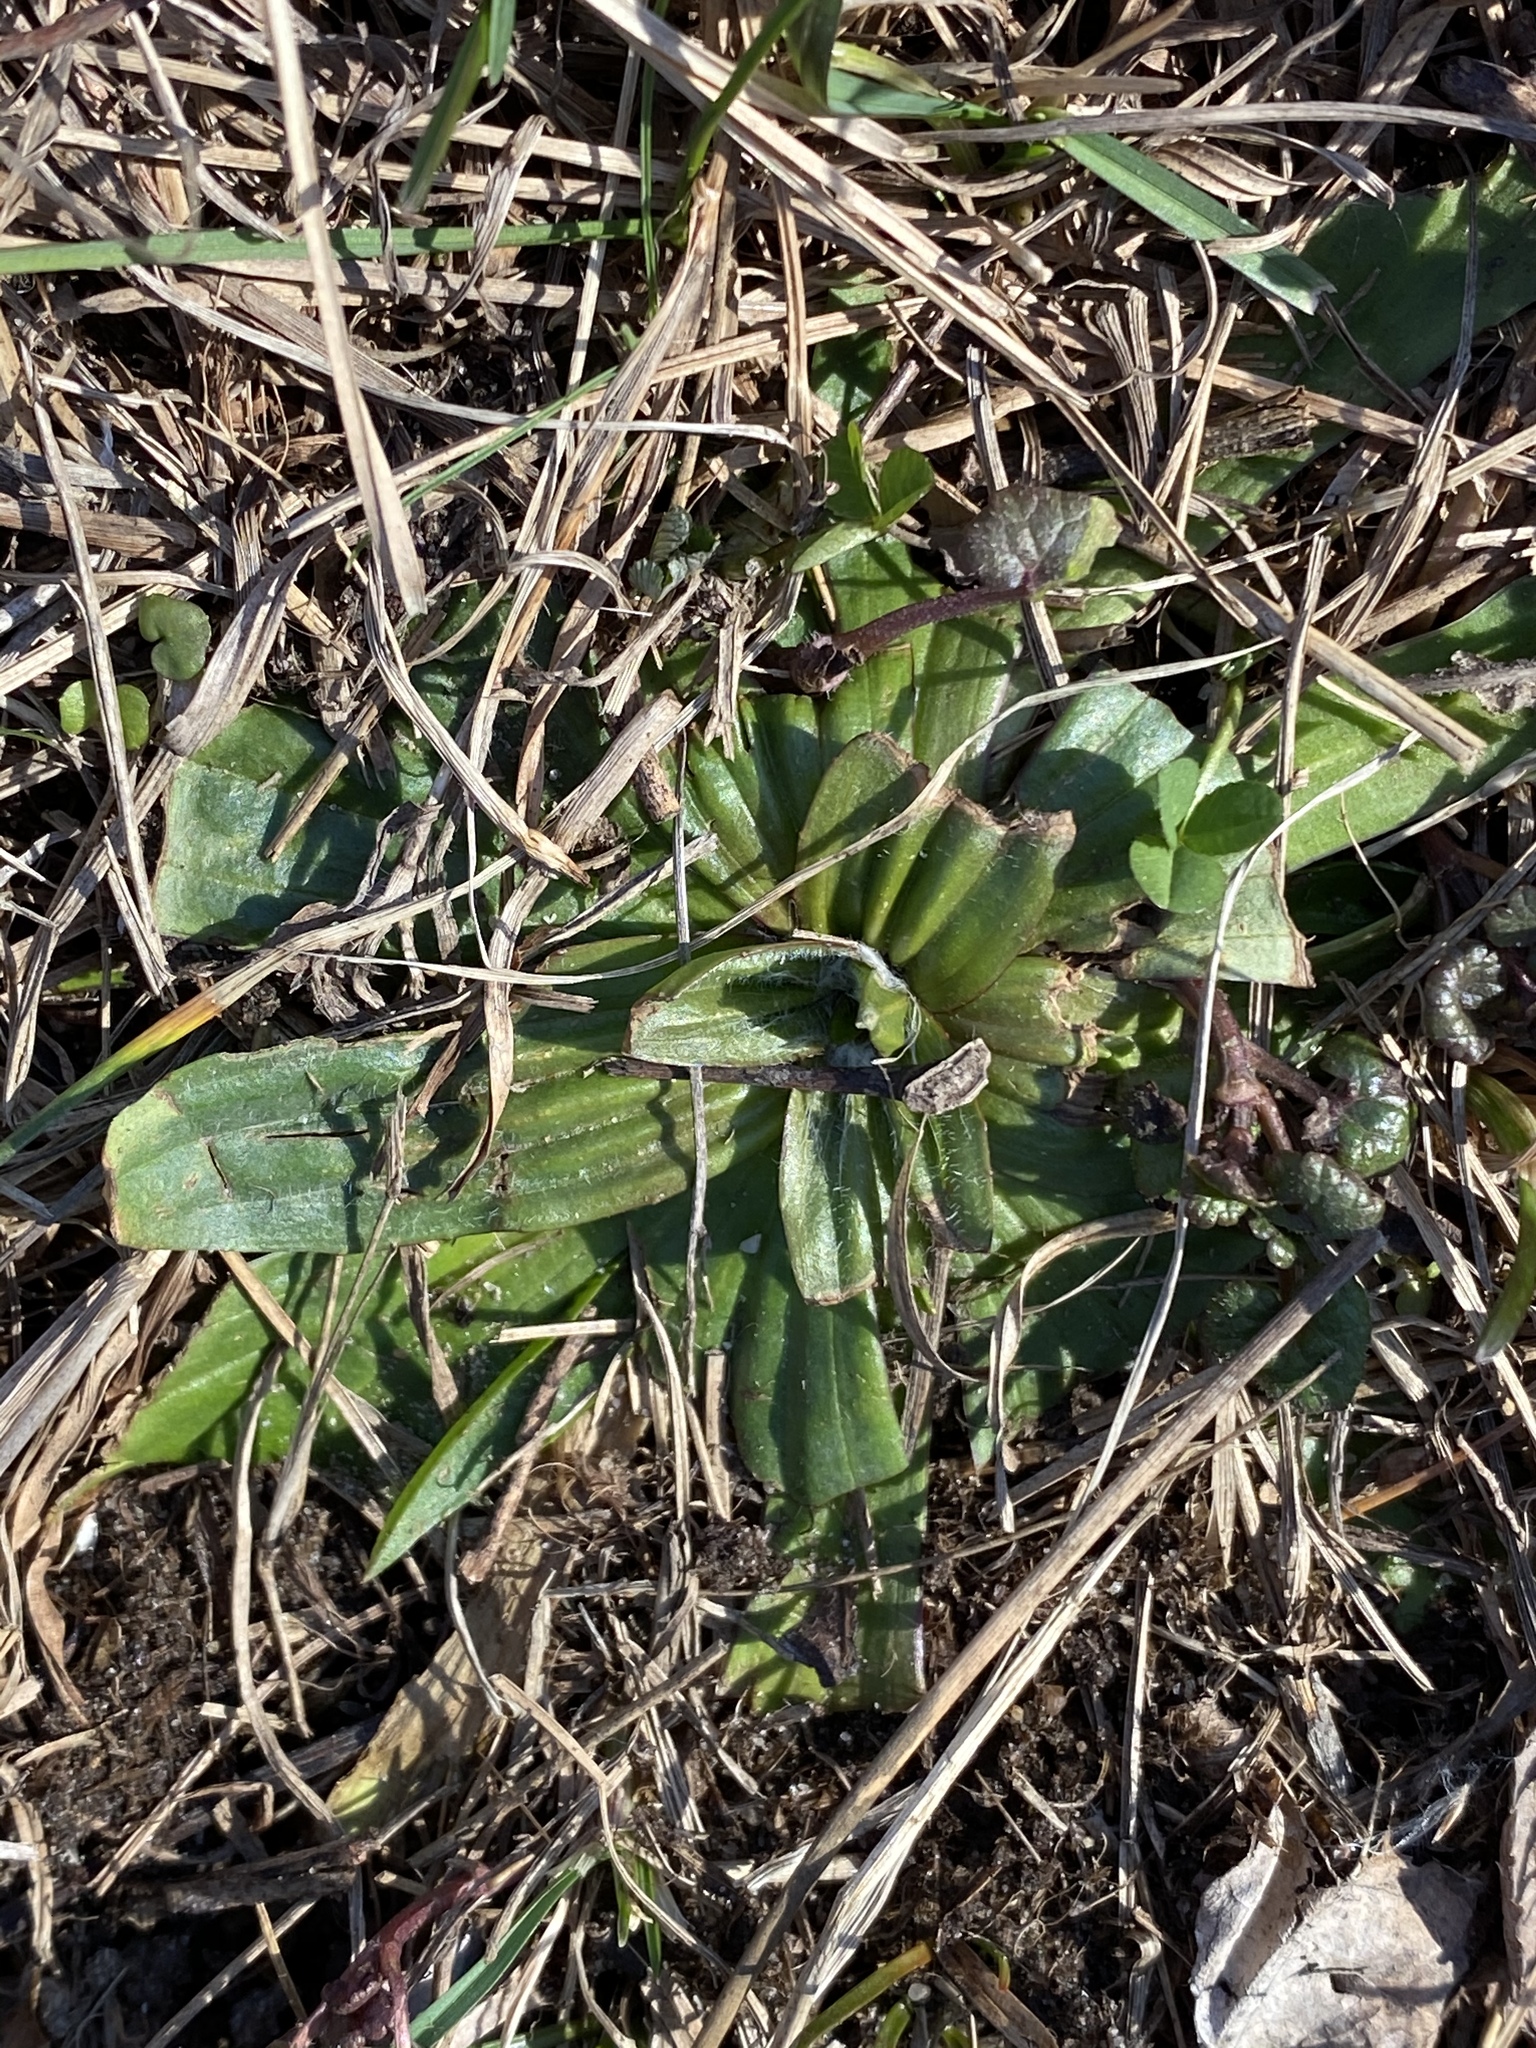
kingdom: Plantae
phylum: Tracheophyta
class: Magnoliopsida
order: Lamiales
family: Plantaginaceae
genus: Plantago
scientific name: Plantago lanceolata
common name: Ribwort plantain
